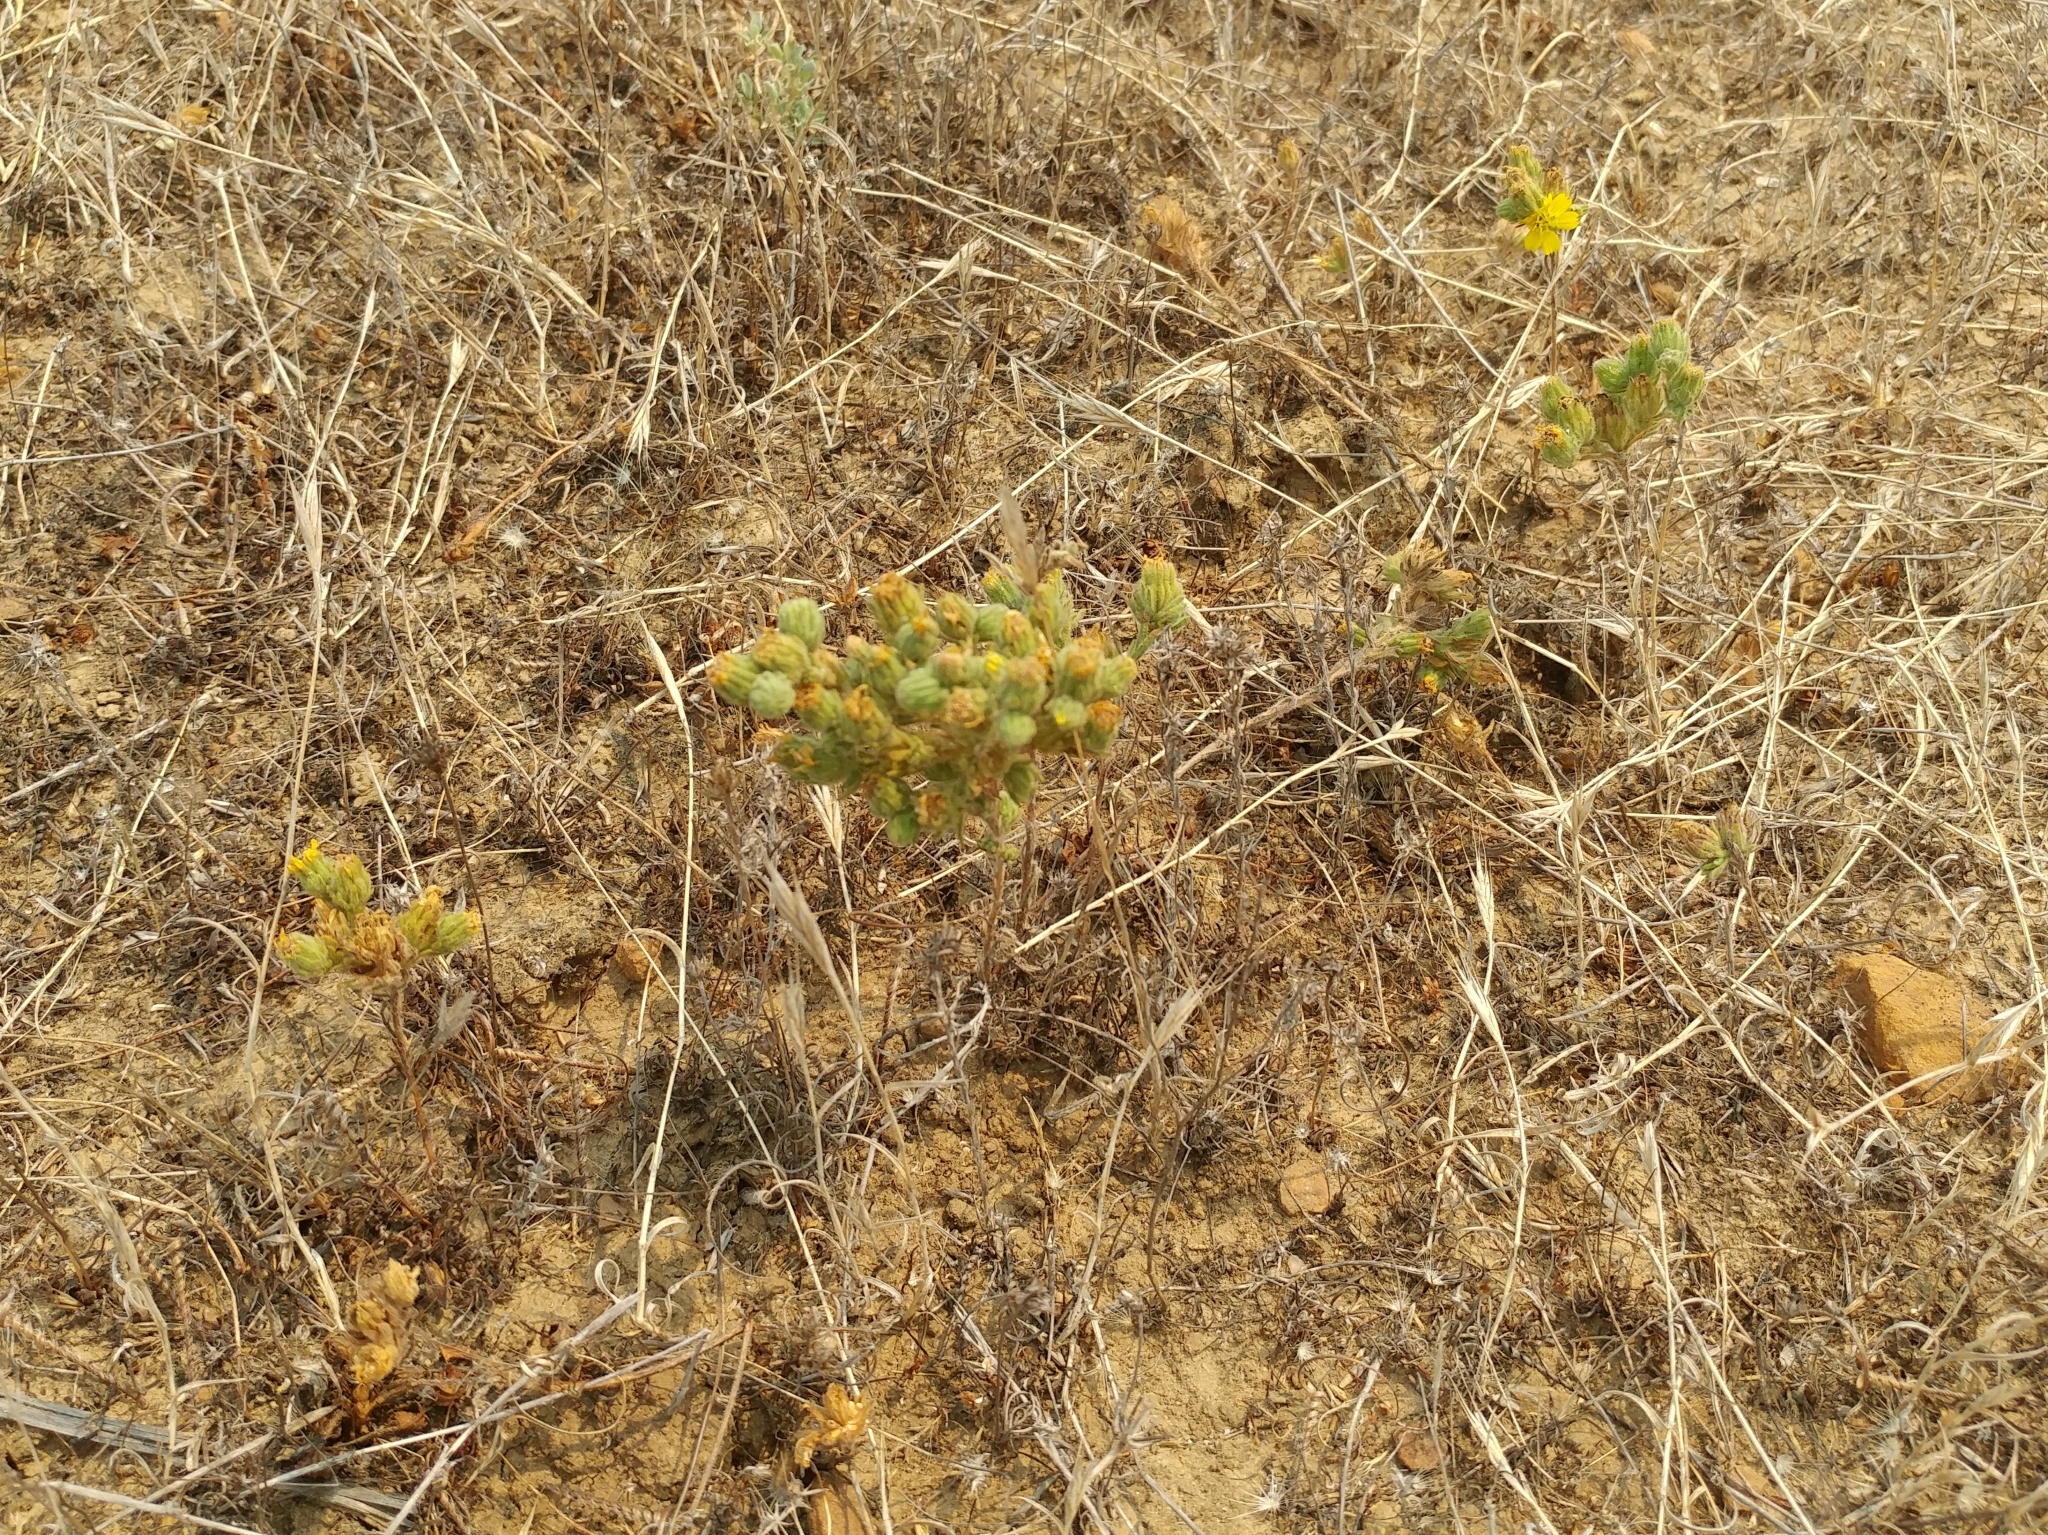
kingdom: Plantae
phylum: Tracheophyta
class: Magnoliopsida
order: Asterales
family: Asteraceae
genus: Deinandra
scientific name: Deinandra increscens
